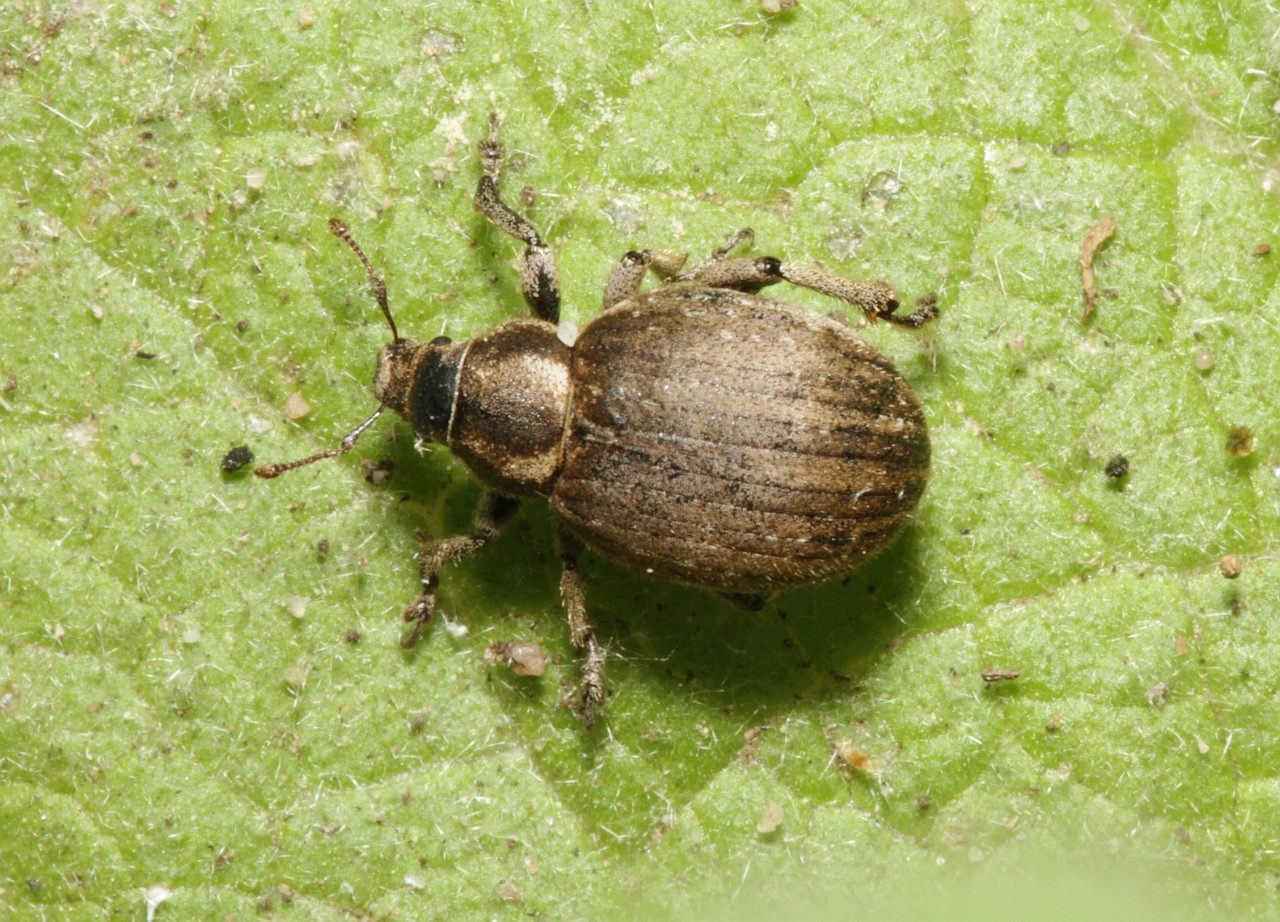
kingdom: Animalia
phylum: Arthropoda
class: Insecta
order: Coleoptera
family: Curculionidae
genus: Philopedon
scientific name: Philopedon plagiatum
